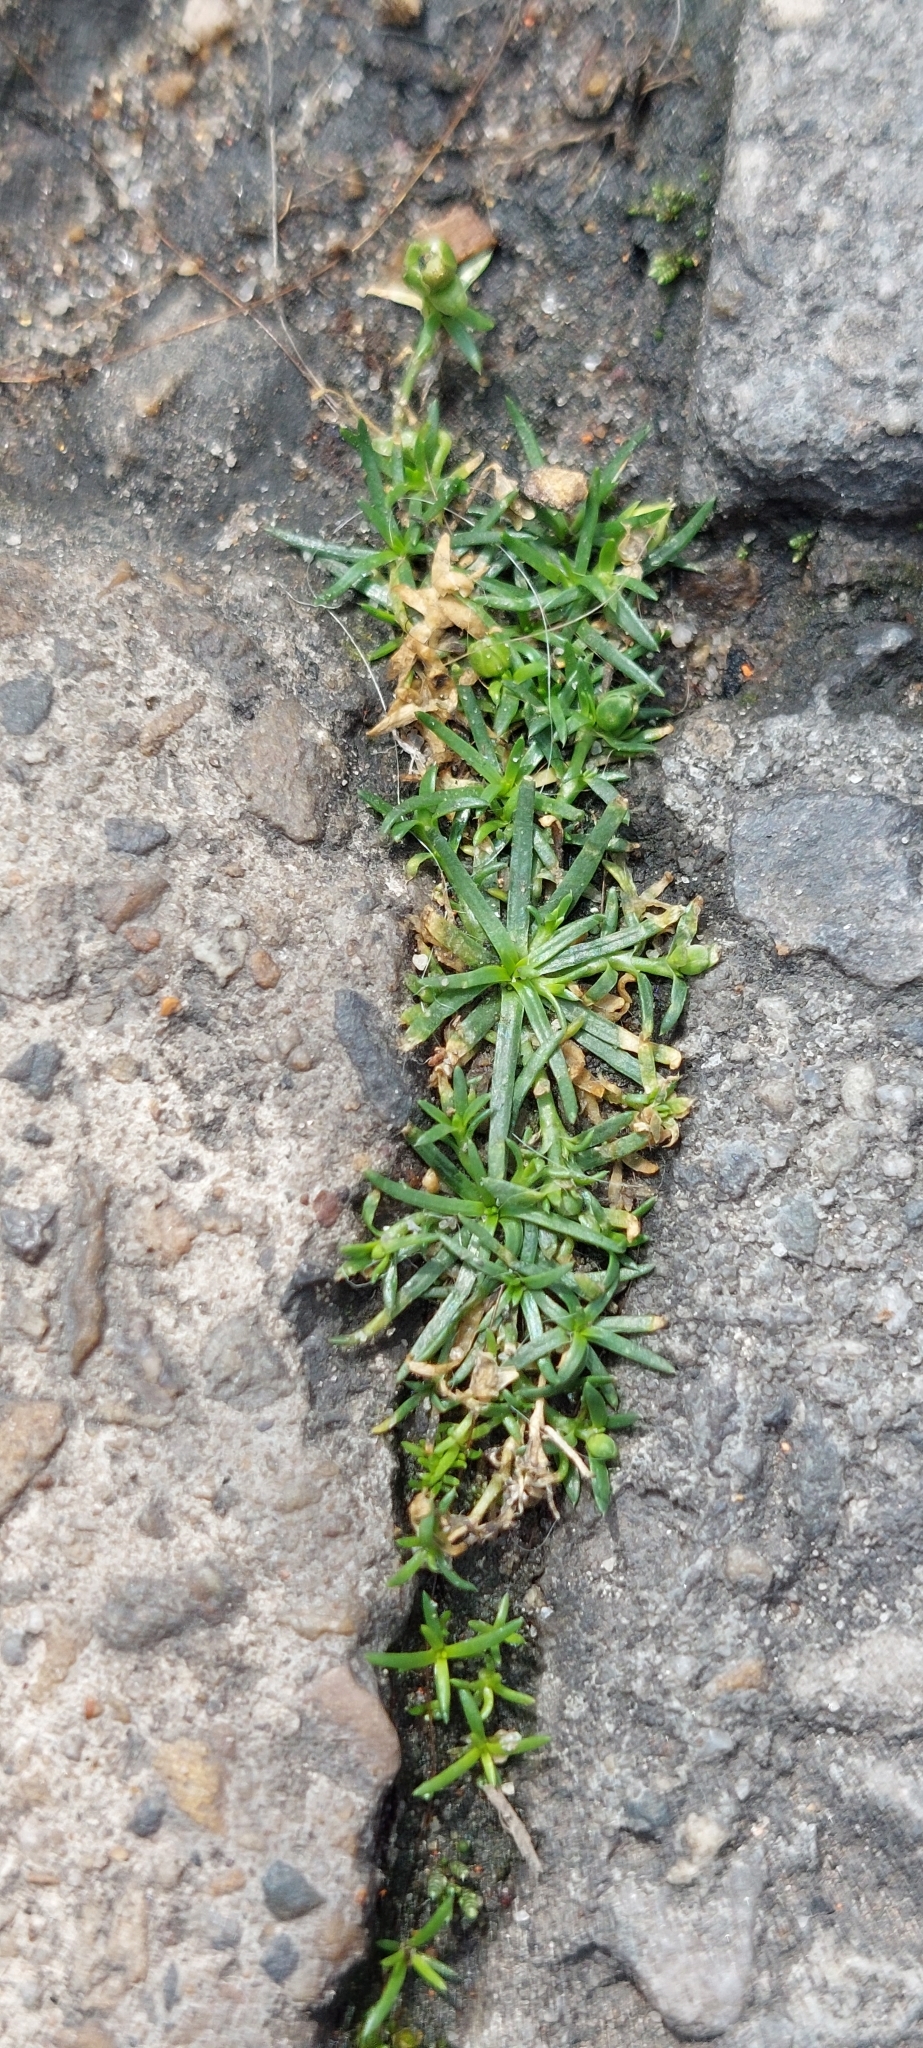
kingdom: Plantae
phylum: Tracheophyta
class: Magnoliopsida
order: Caryophyllales
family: Caryophyllaceae
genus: Sagina
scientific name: Sagina procumbens
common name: Procumbent pearlwort
